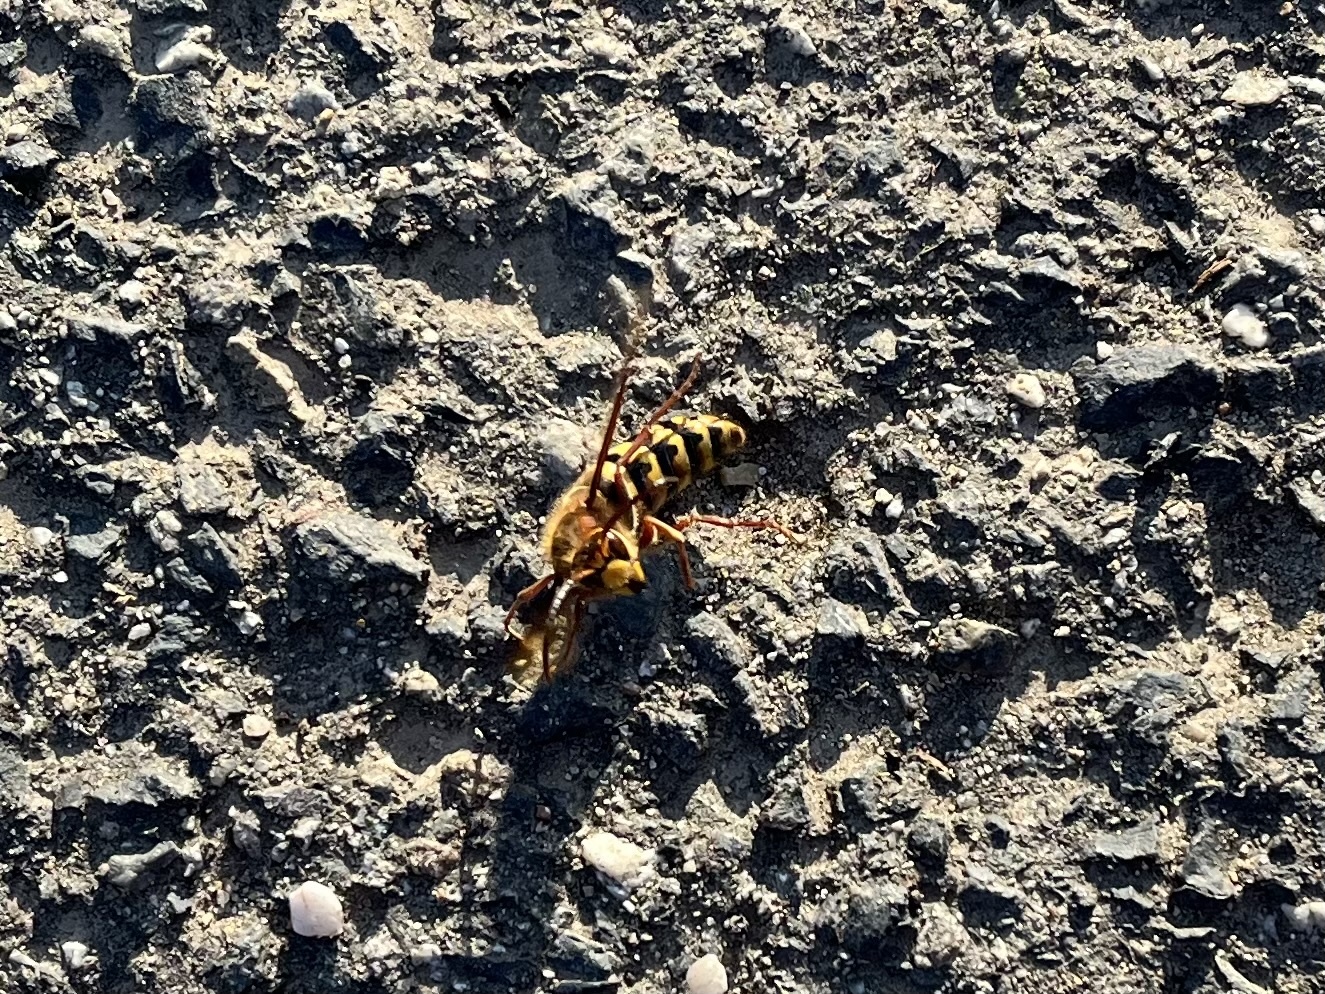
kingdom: Animalia
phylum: Arthropoda
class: Insecta
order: Hymenoptera
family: Vespidae
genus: Vespa
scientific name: Vespa crabro
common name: Hornet
